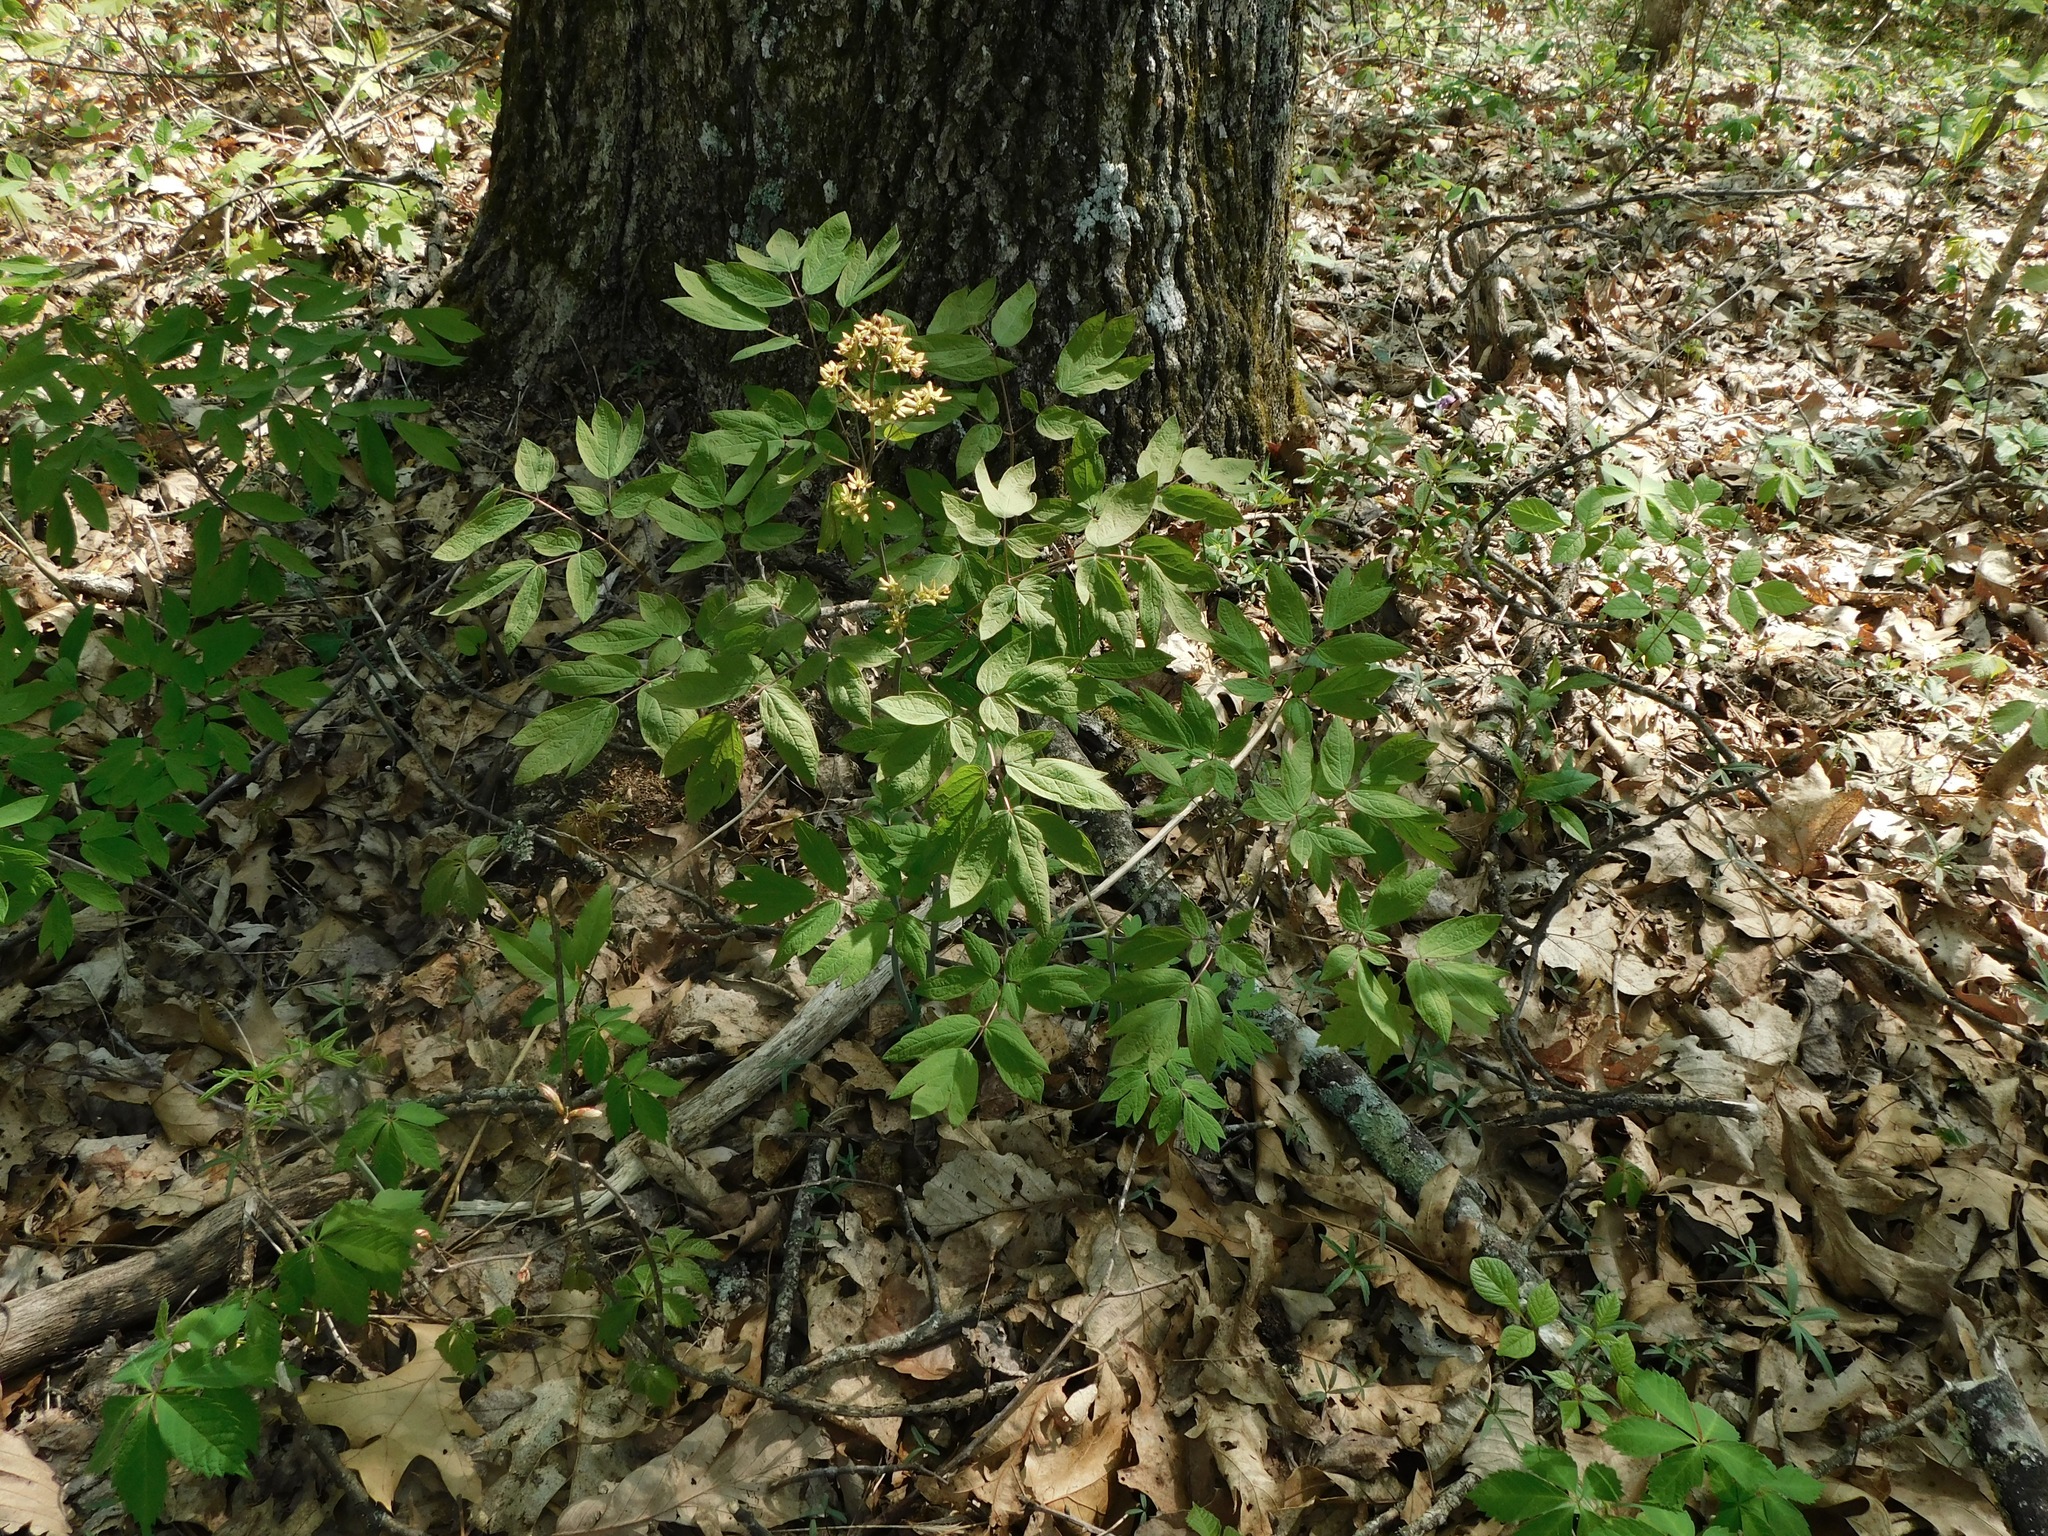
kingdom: Plantae
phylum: Tracheophyta
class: Magnoliopsida
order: Ranunculales
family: Berberidaceae
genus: Caulophyllum
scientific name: Caulophyllum thalictroides
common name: Blue cohosh
